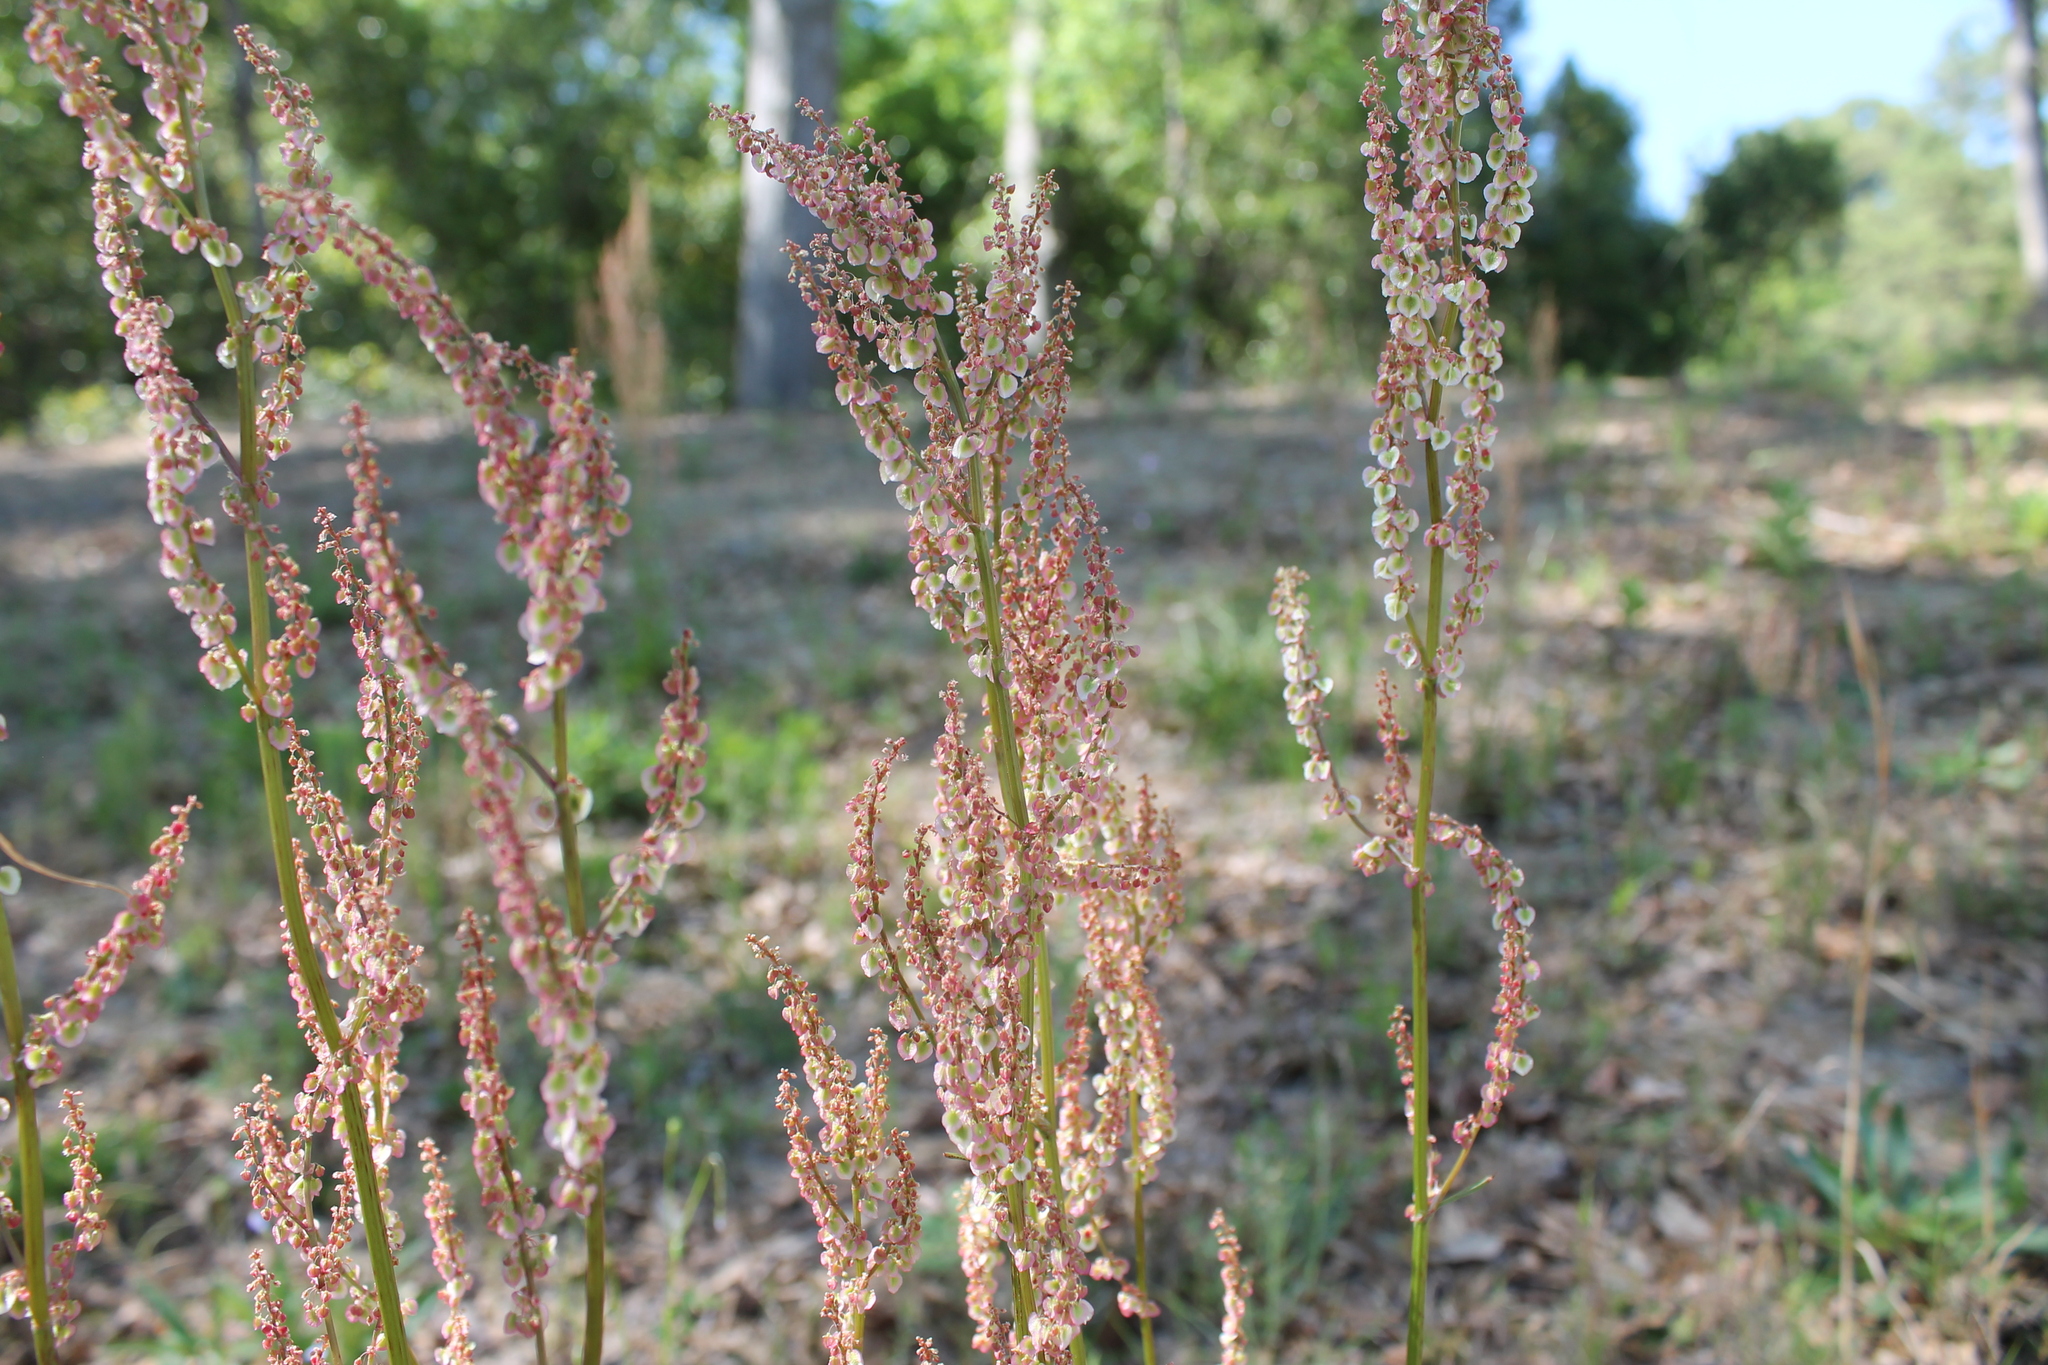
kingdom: Plantae
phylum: Tracheophyta
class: Magnoliopsida
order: Caryophyllales
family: Polygonaceae
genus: Rumex
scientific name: Rumex hastatulus
